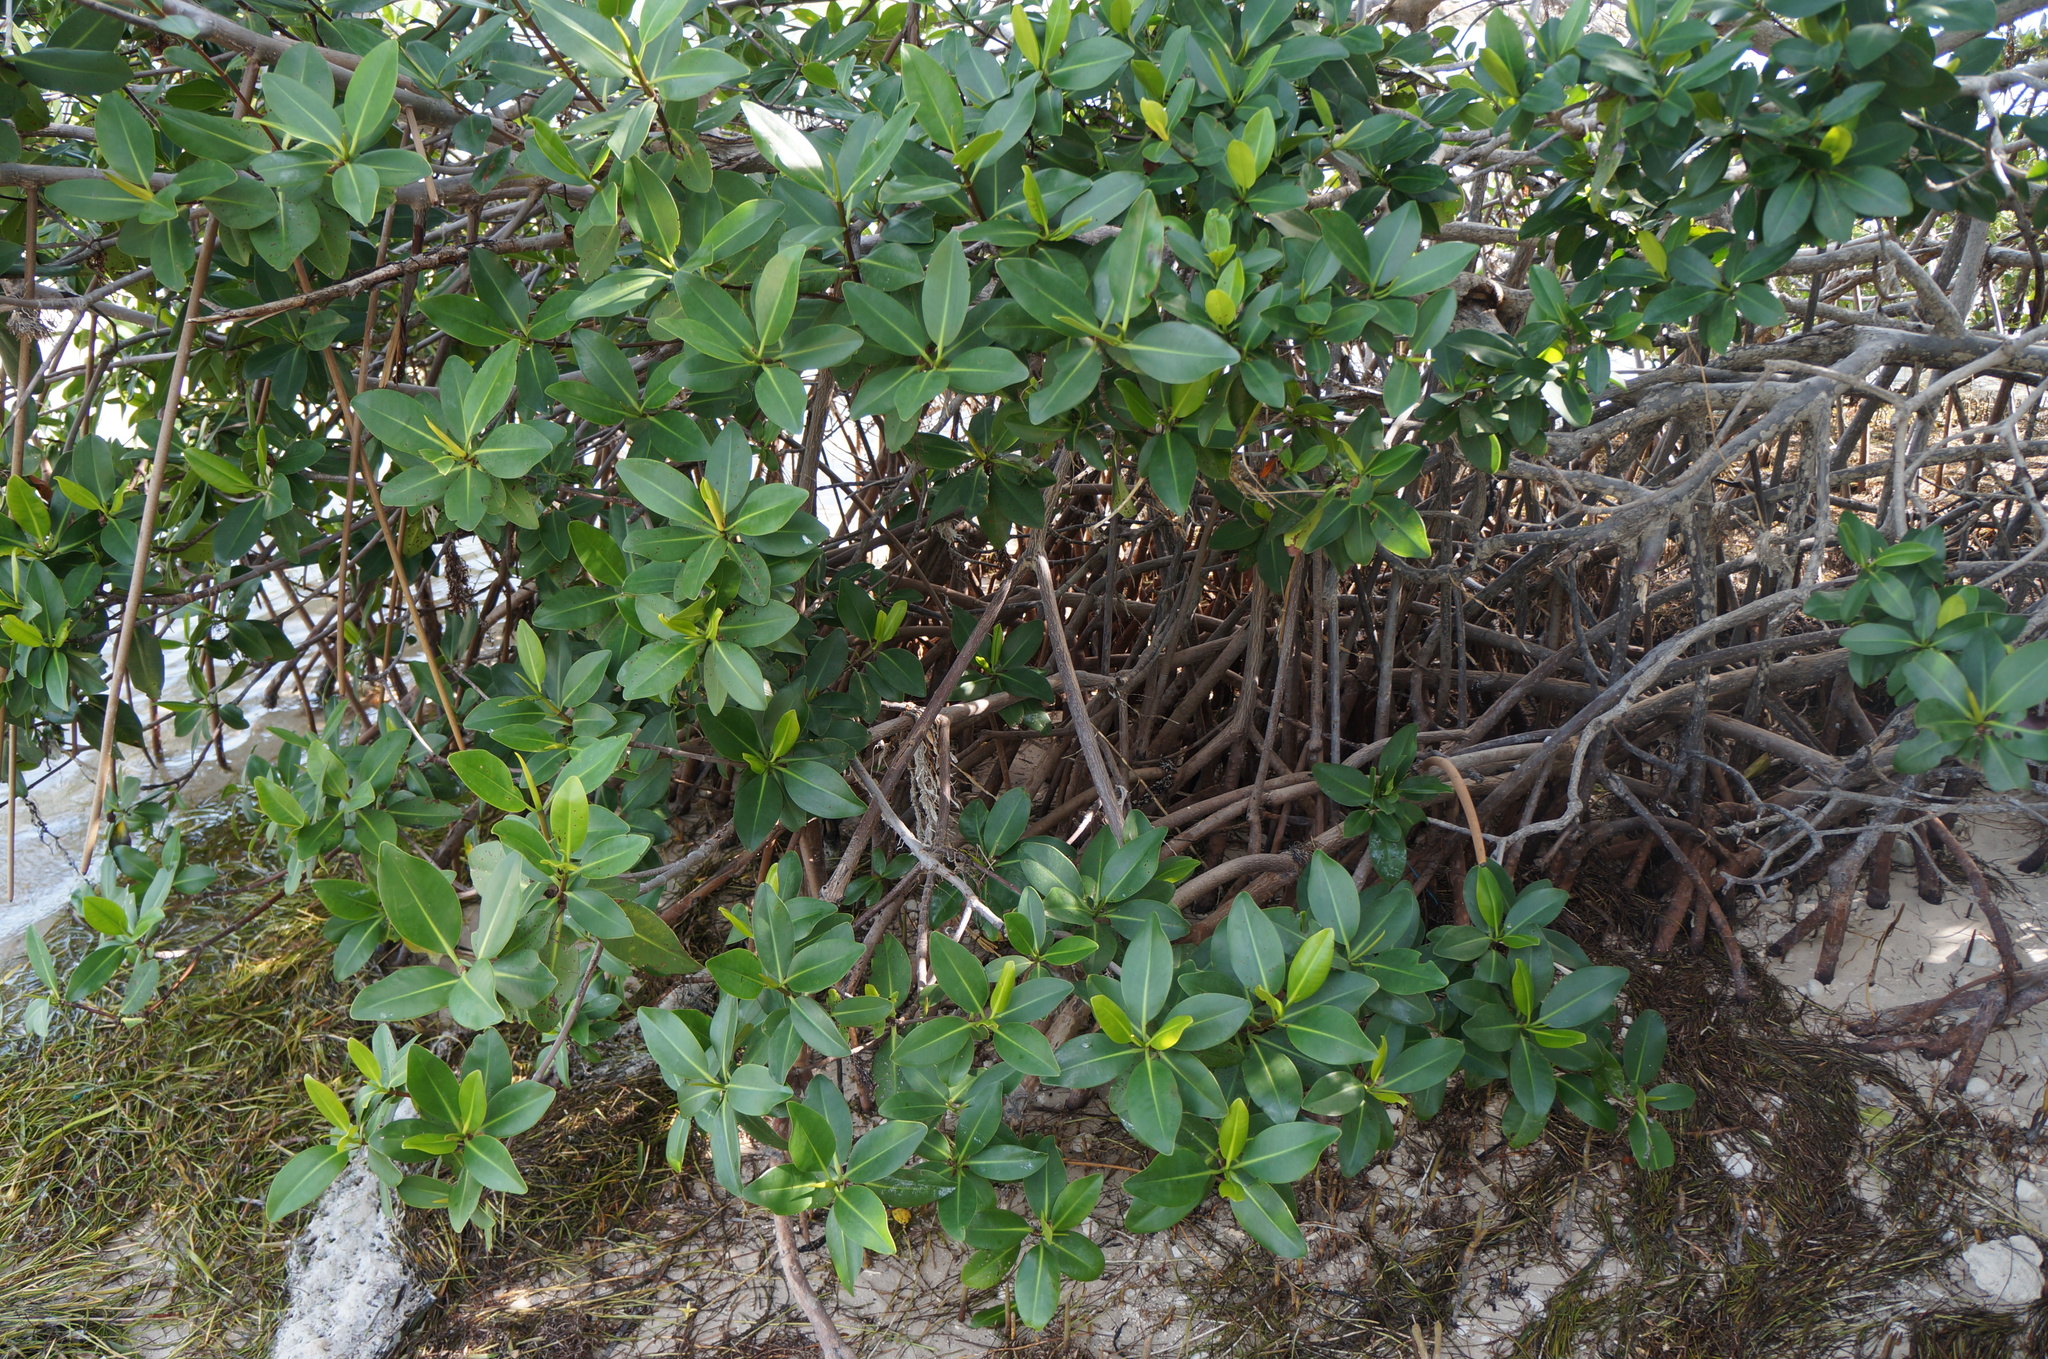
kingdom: Plantae
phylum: Tracheophyta
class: Magnoliopsida
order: Malpighiales
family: Rhizophoraceae
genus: Rhizophora
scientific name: Rhizophora mangle
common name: Red mangrove
